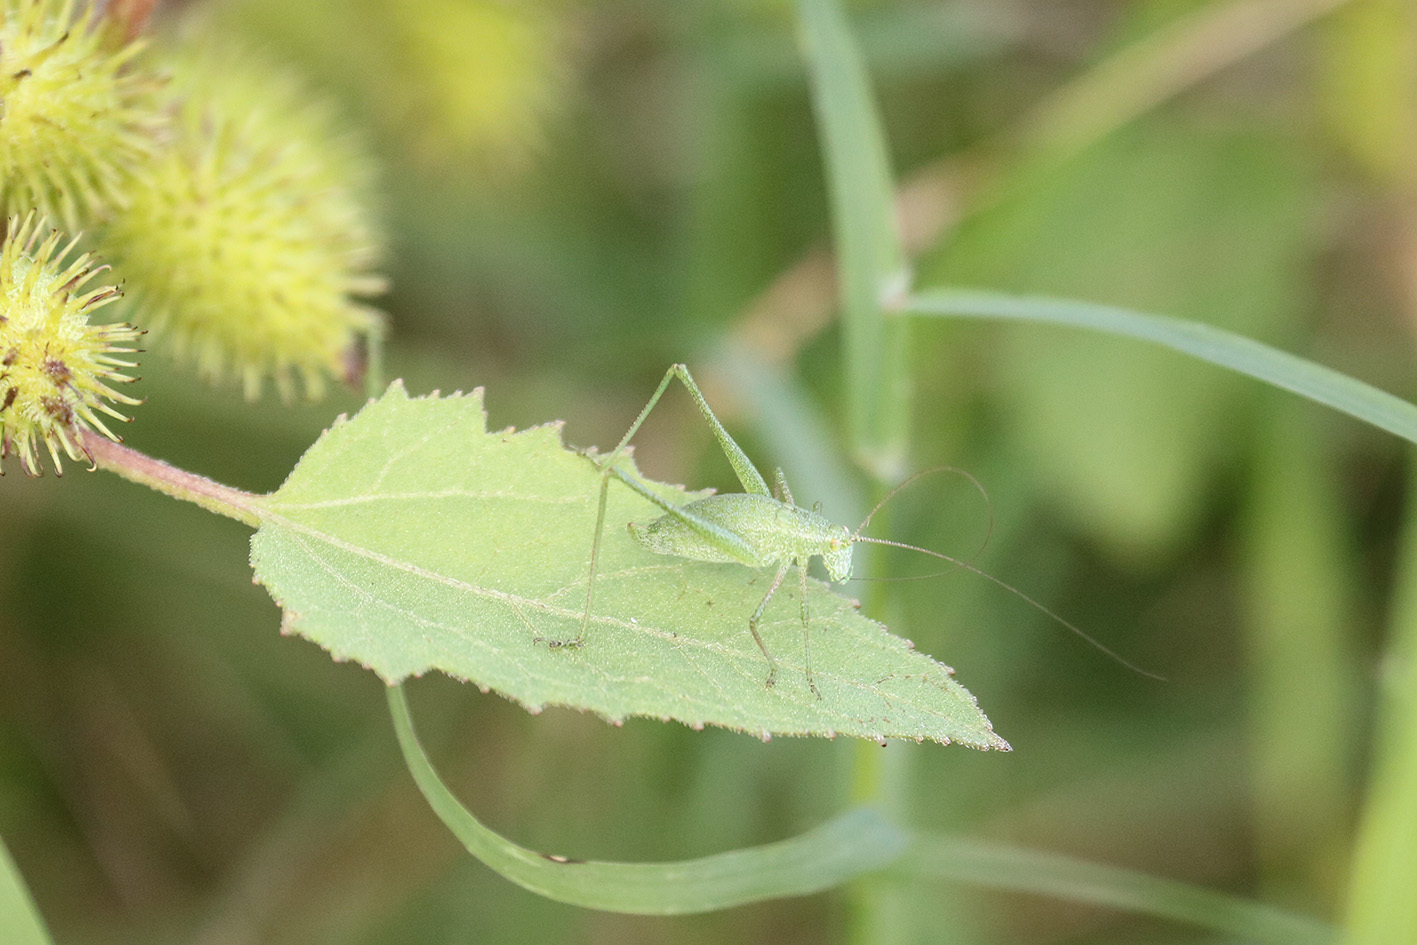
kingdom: Animalia
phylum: Arthropoda
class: Insecta
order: Orthoptera
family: Tettigoniidae
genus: Anisophya
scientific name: Anisophya punctinervis
